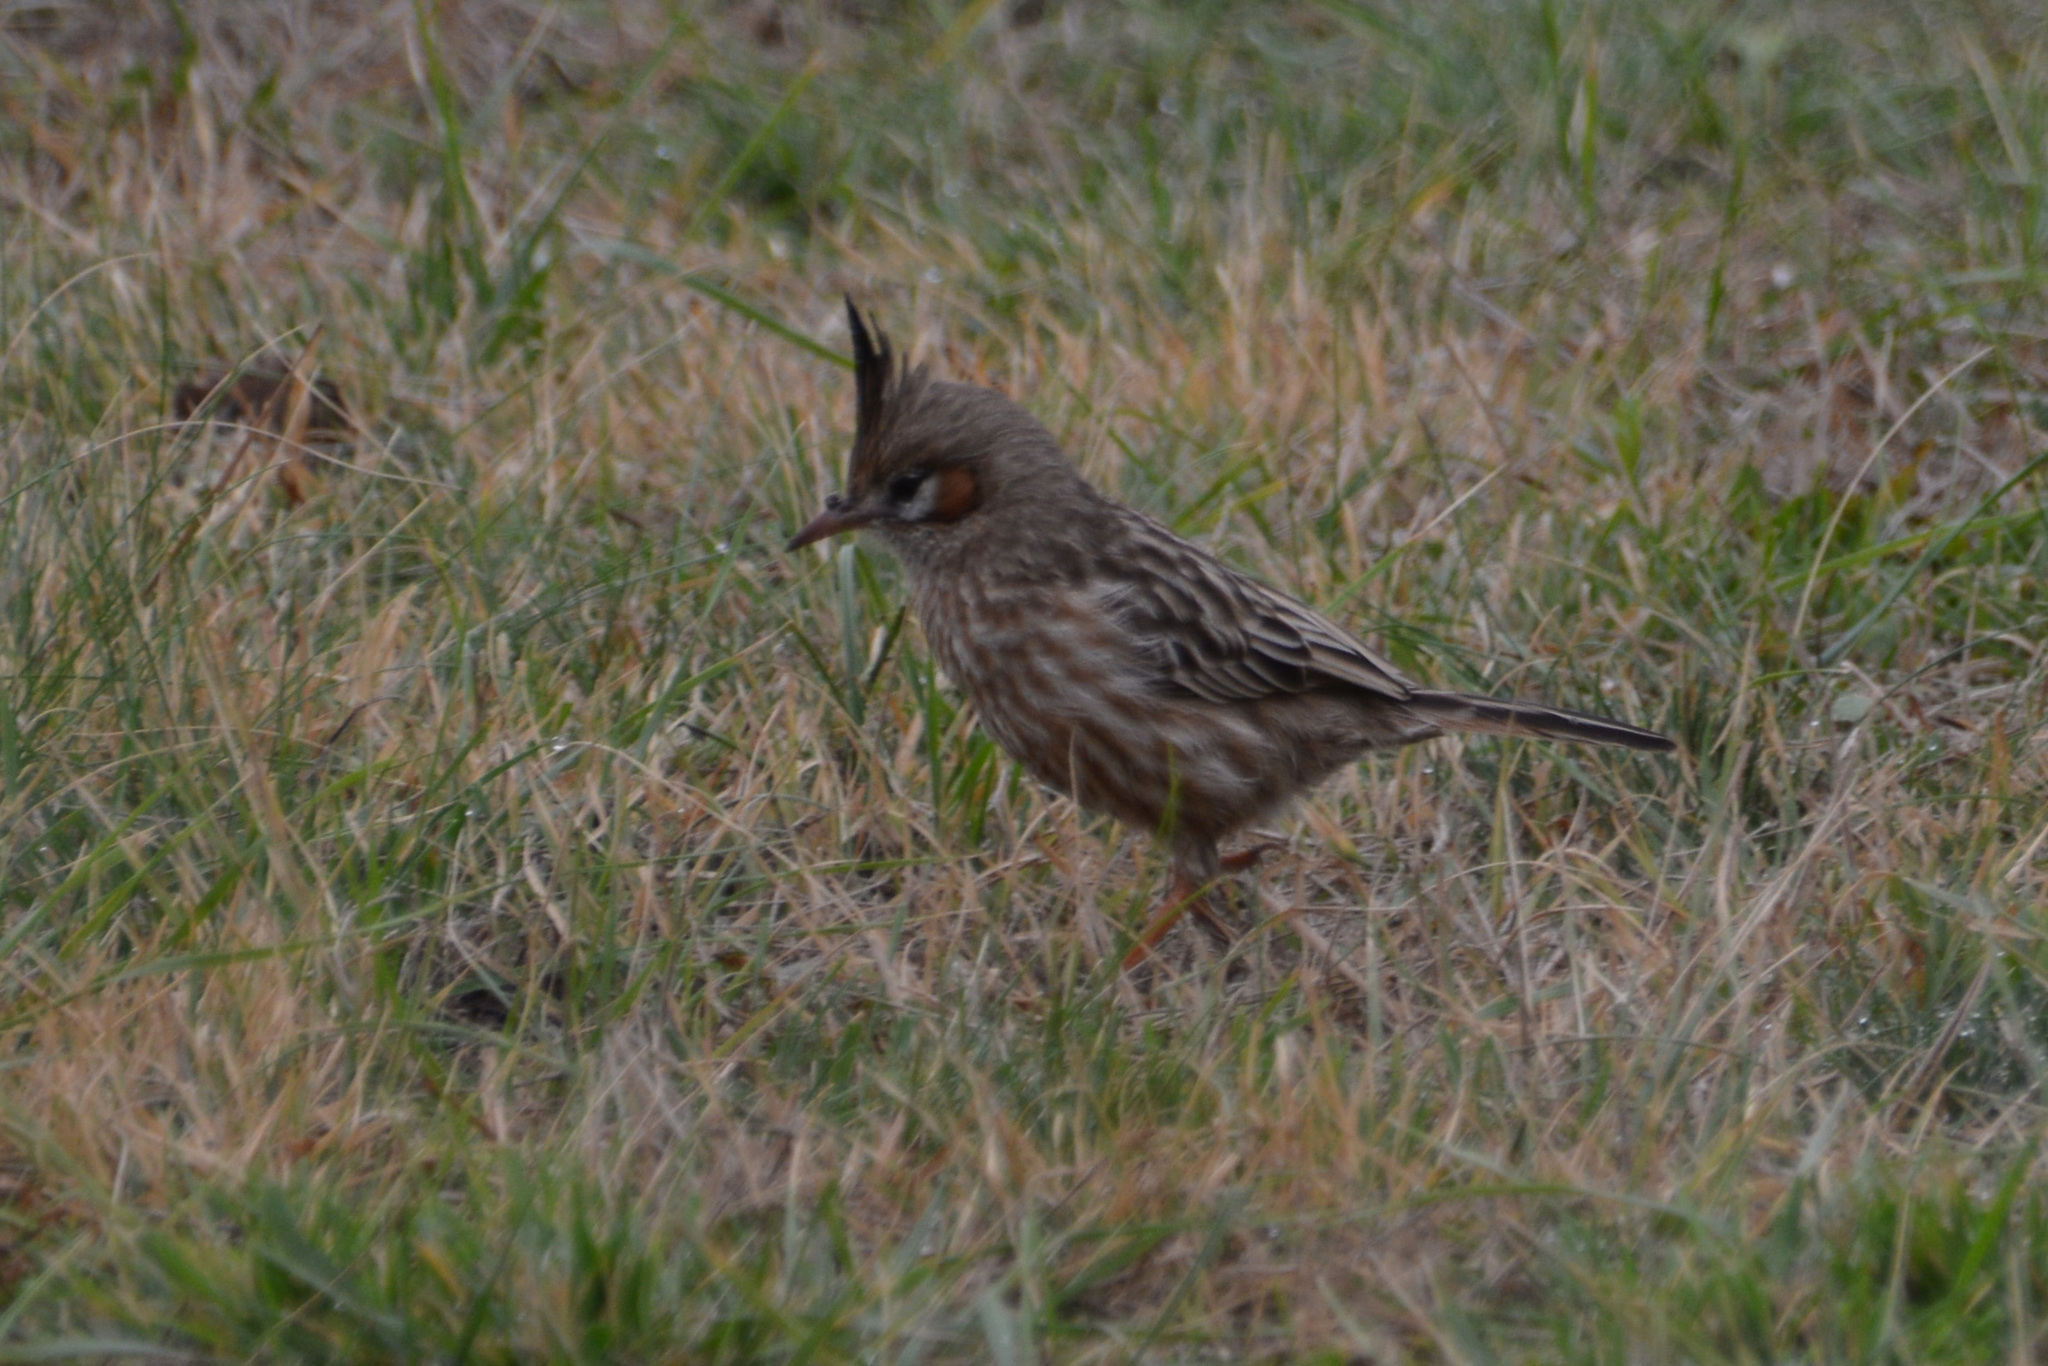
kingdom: Animalia
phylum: Chordata
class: Aves
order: Passeriformes
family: Furnariidae
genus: Coryphistera
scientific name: Coryphistera alaudina
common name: Lark-like brushrunner
